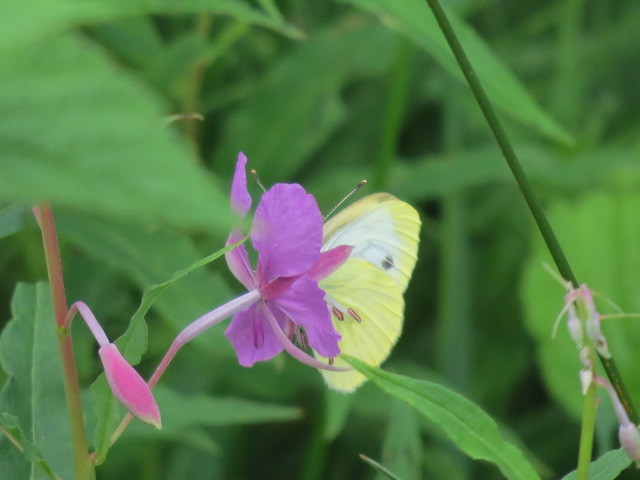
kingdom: Animalia
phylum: Arthropoda
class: Insecta
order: Lepidoptera
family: Pieridae
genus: Pieris
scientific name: Pieris napi
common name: Green-veined white
